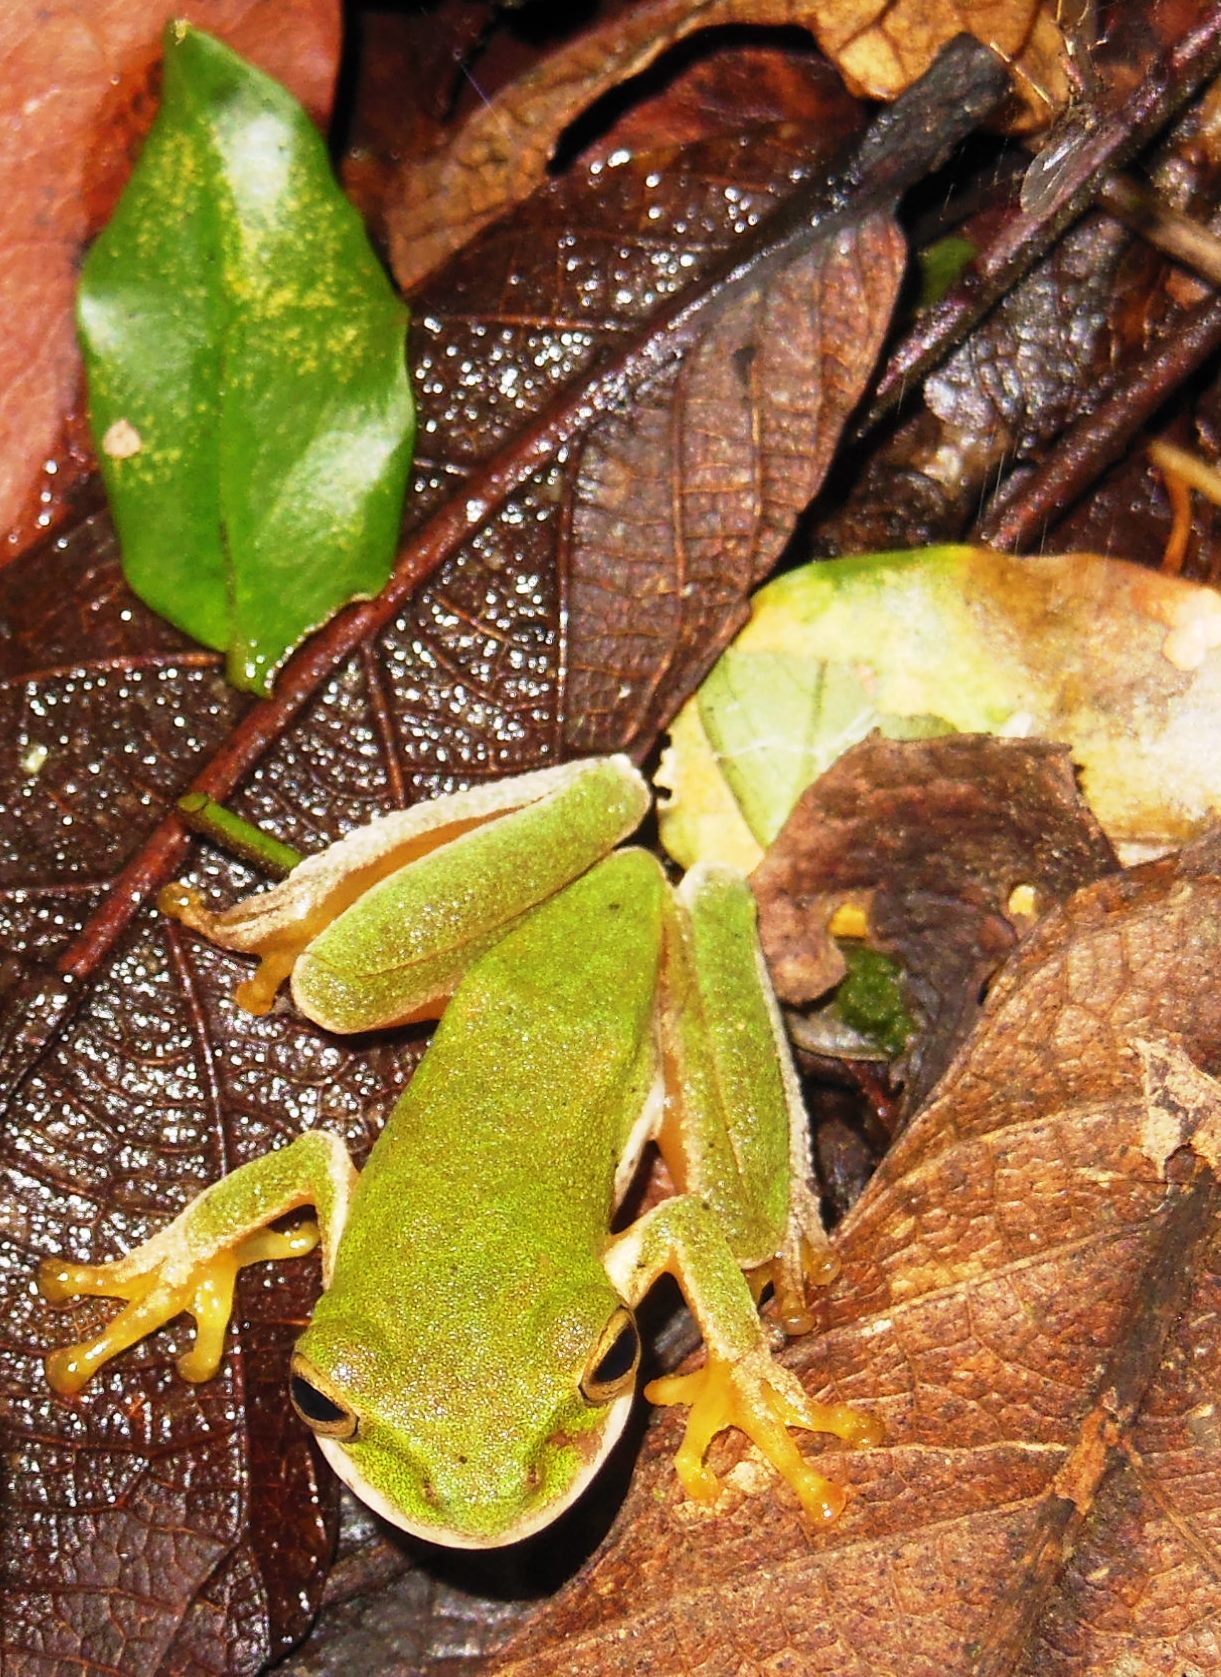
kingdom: Animalia
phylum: Chordata
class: Amphibia
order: Anura
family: Hylidae
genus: Duellmanohyla
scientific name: Duellmanohyla schmidtorum
